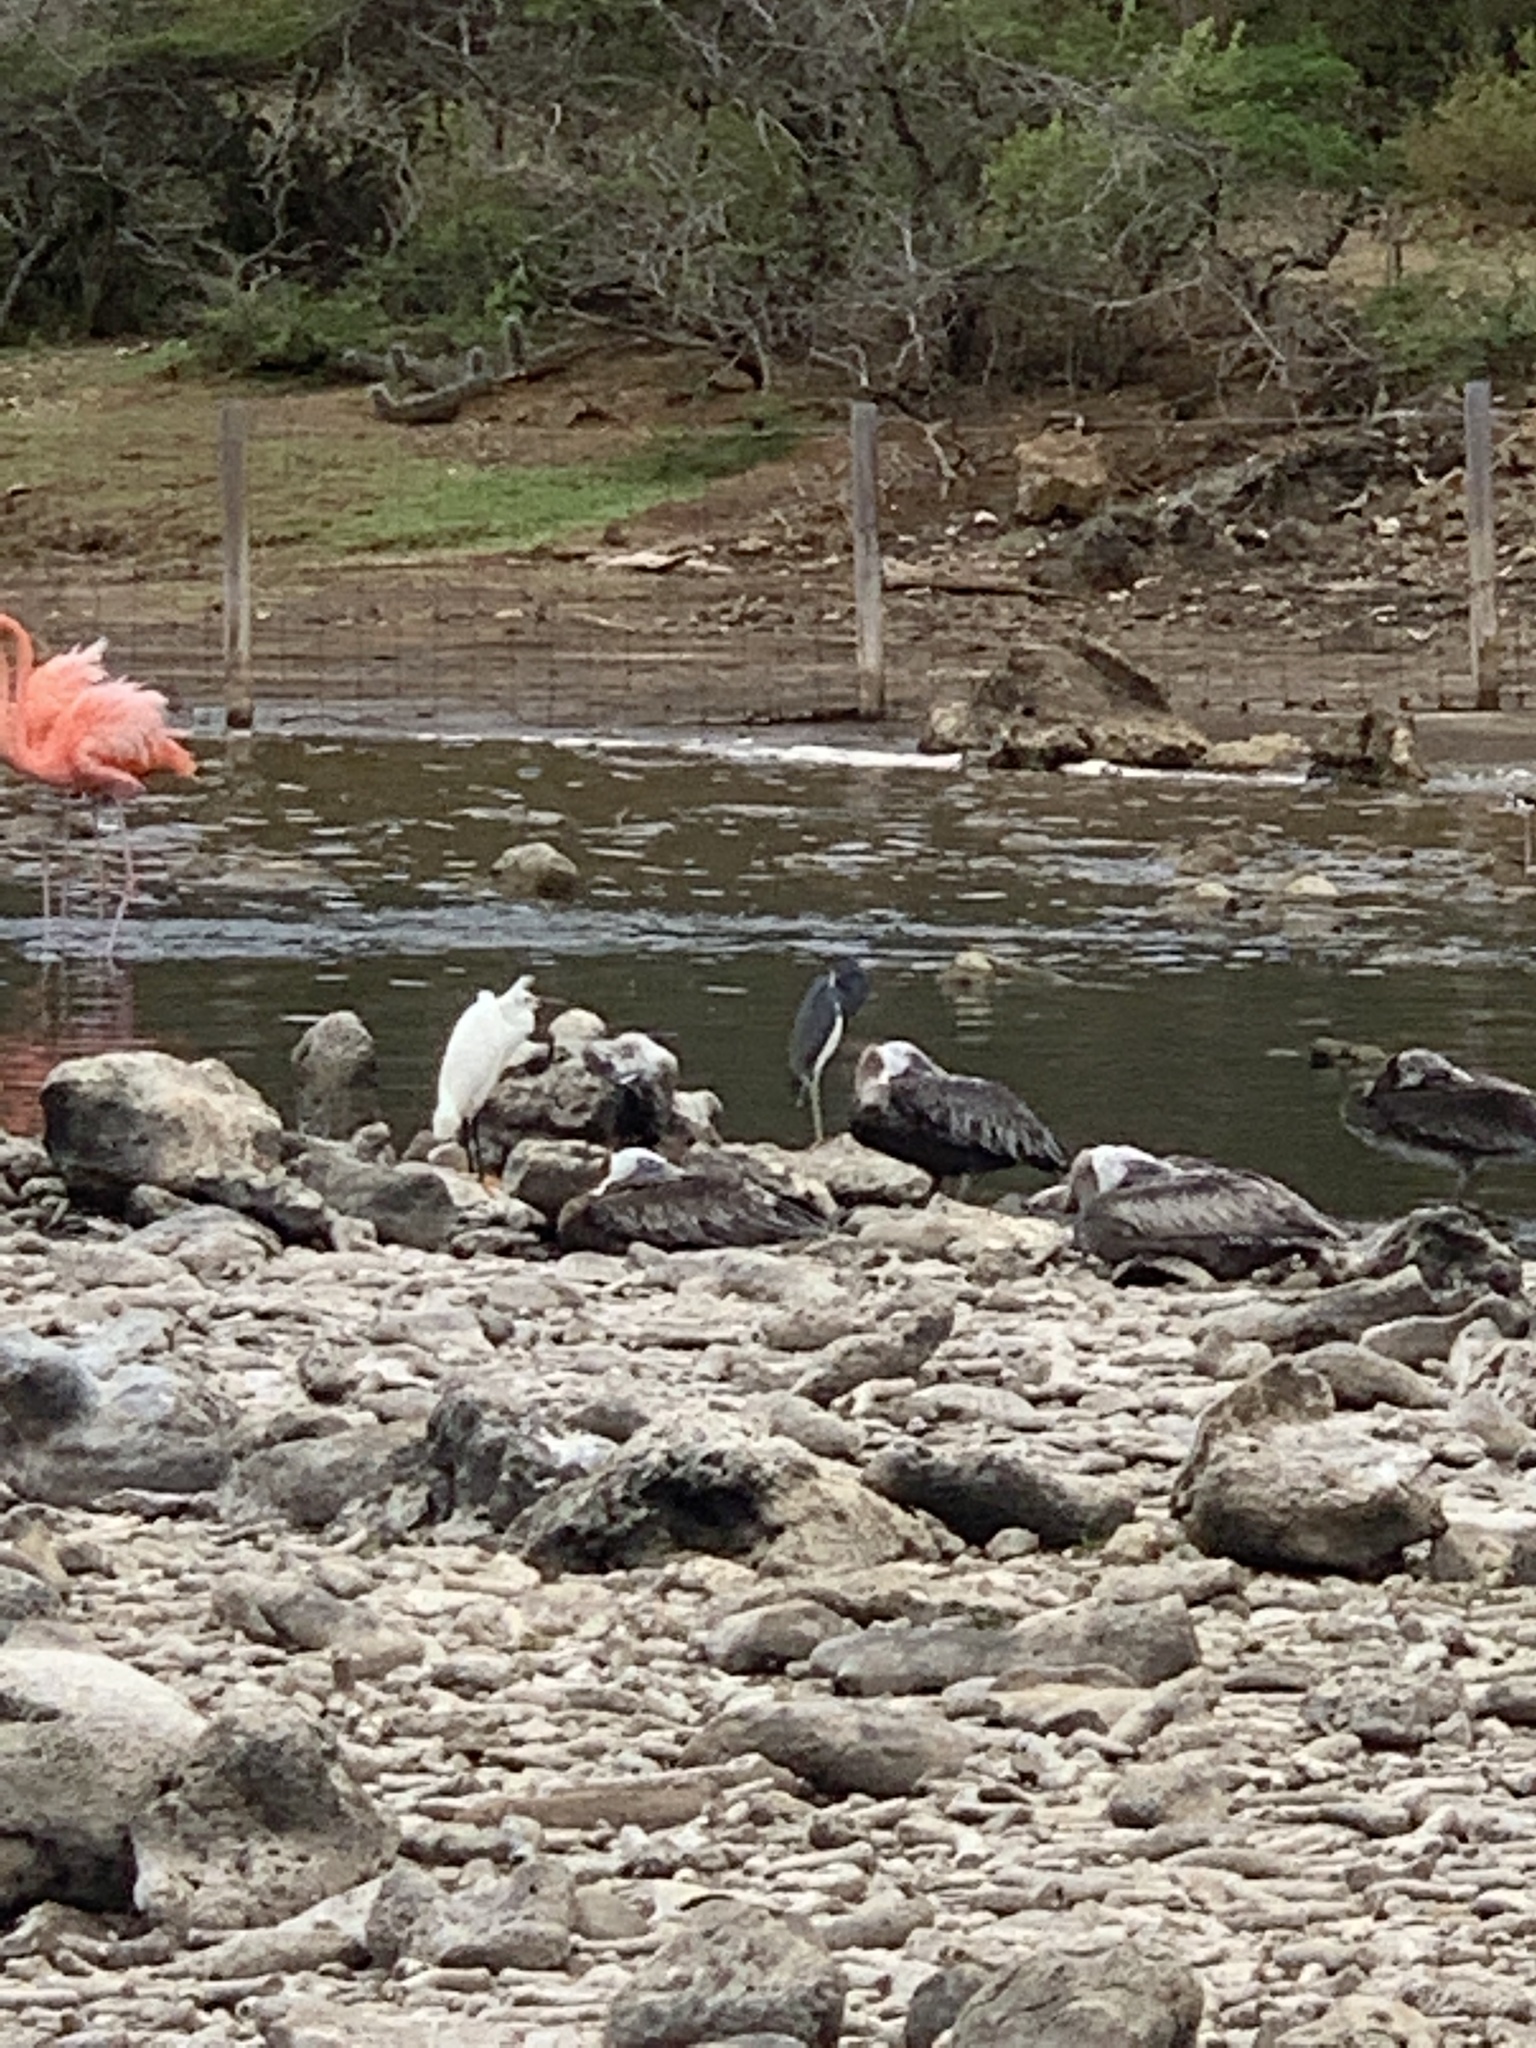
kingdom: Animalia
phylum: Chordata
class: Aves
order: Pelecaniformes
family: Ardeidae
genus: Egretta
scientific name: Egretta tricolor
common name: Tricolored heron
